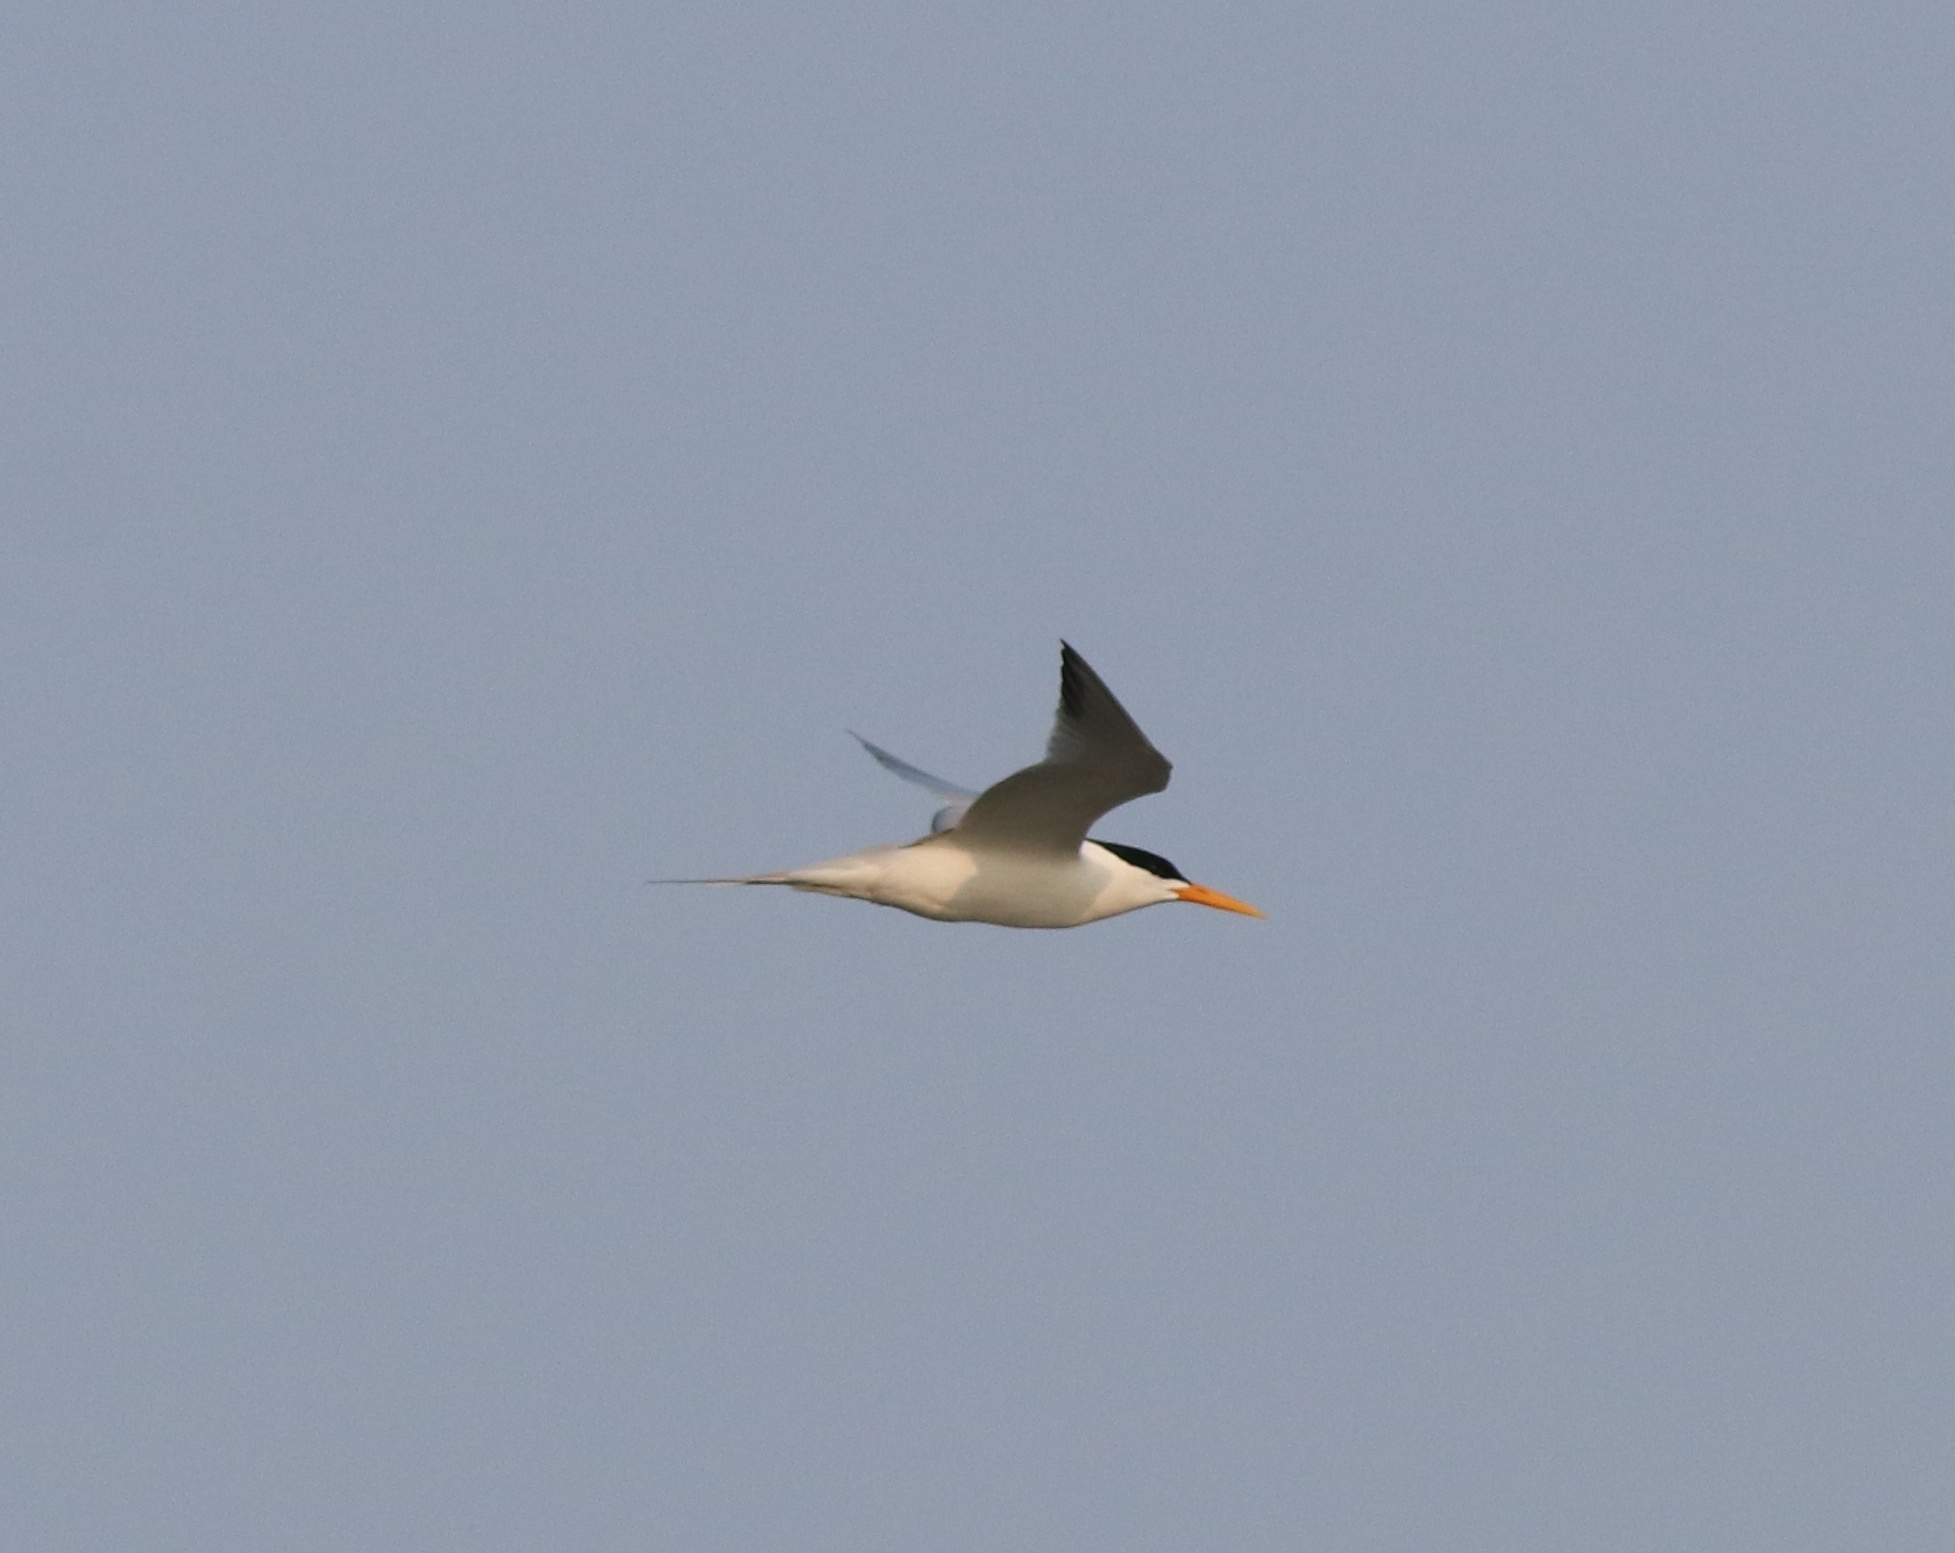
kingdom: Animalia
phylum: Chordata
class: Aves
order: Charadriiformes
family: Laridae
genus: Thalasseus
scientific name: Thalasseus bengalensis
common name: Lesser crested tern
